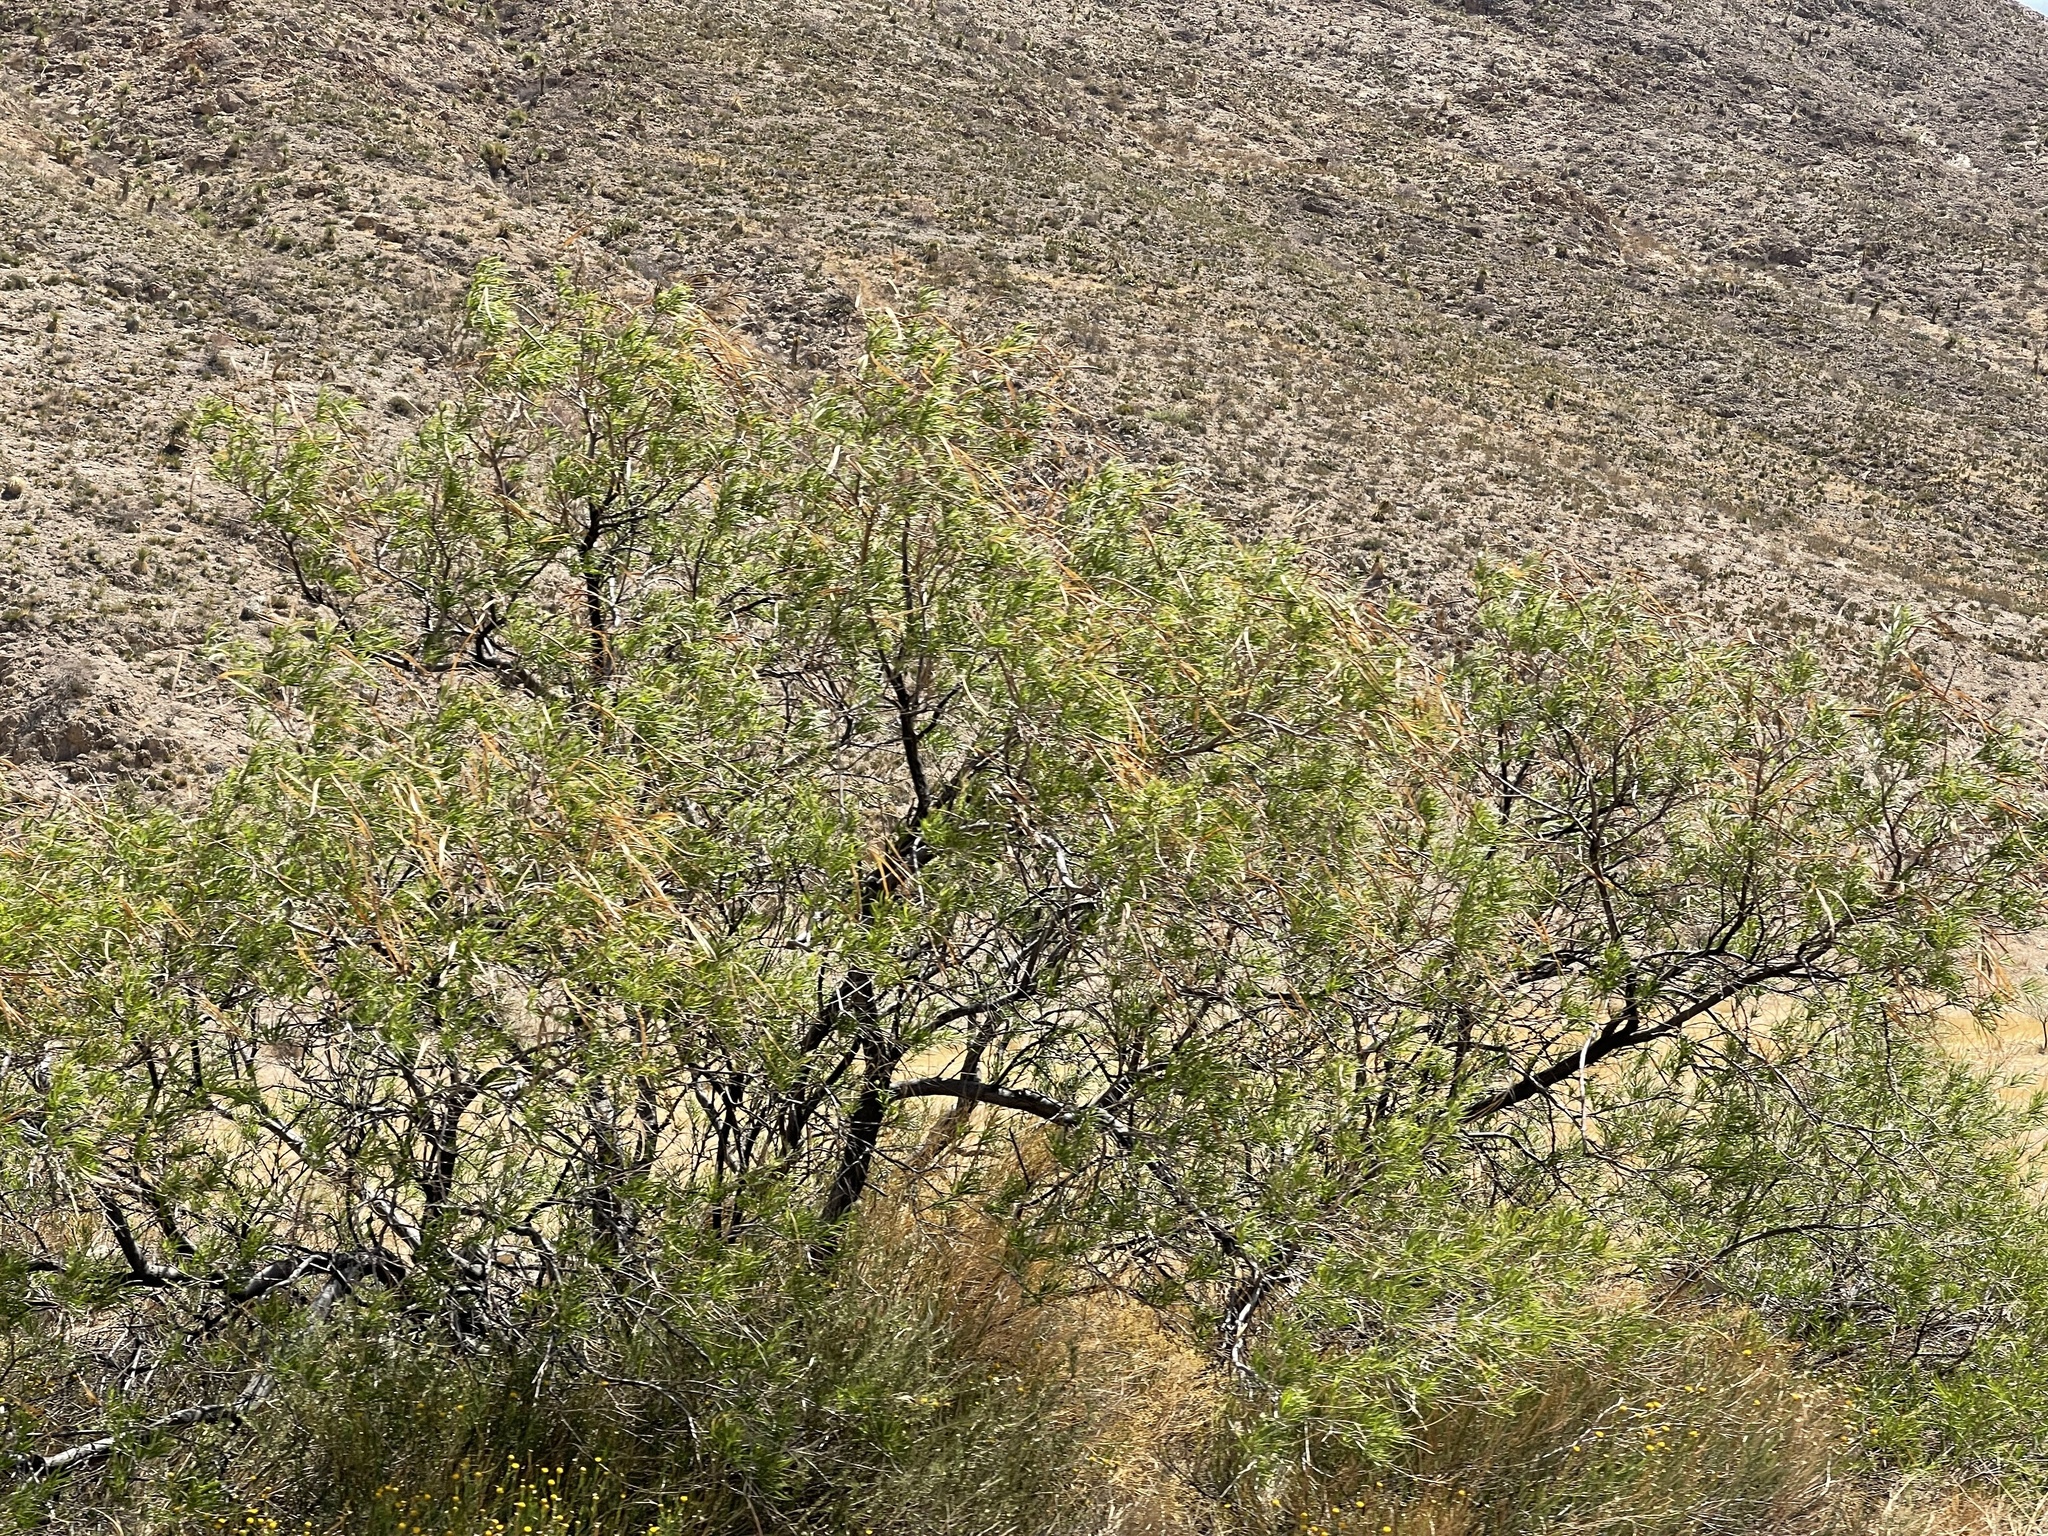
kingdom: Plantae
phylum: Tracheophyta
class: Magnoliopsida
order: Lamiales
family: Bignoniaceae
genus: Chilopsis
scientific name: Chilopsis linearis
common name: Desert-willow
